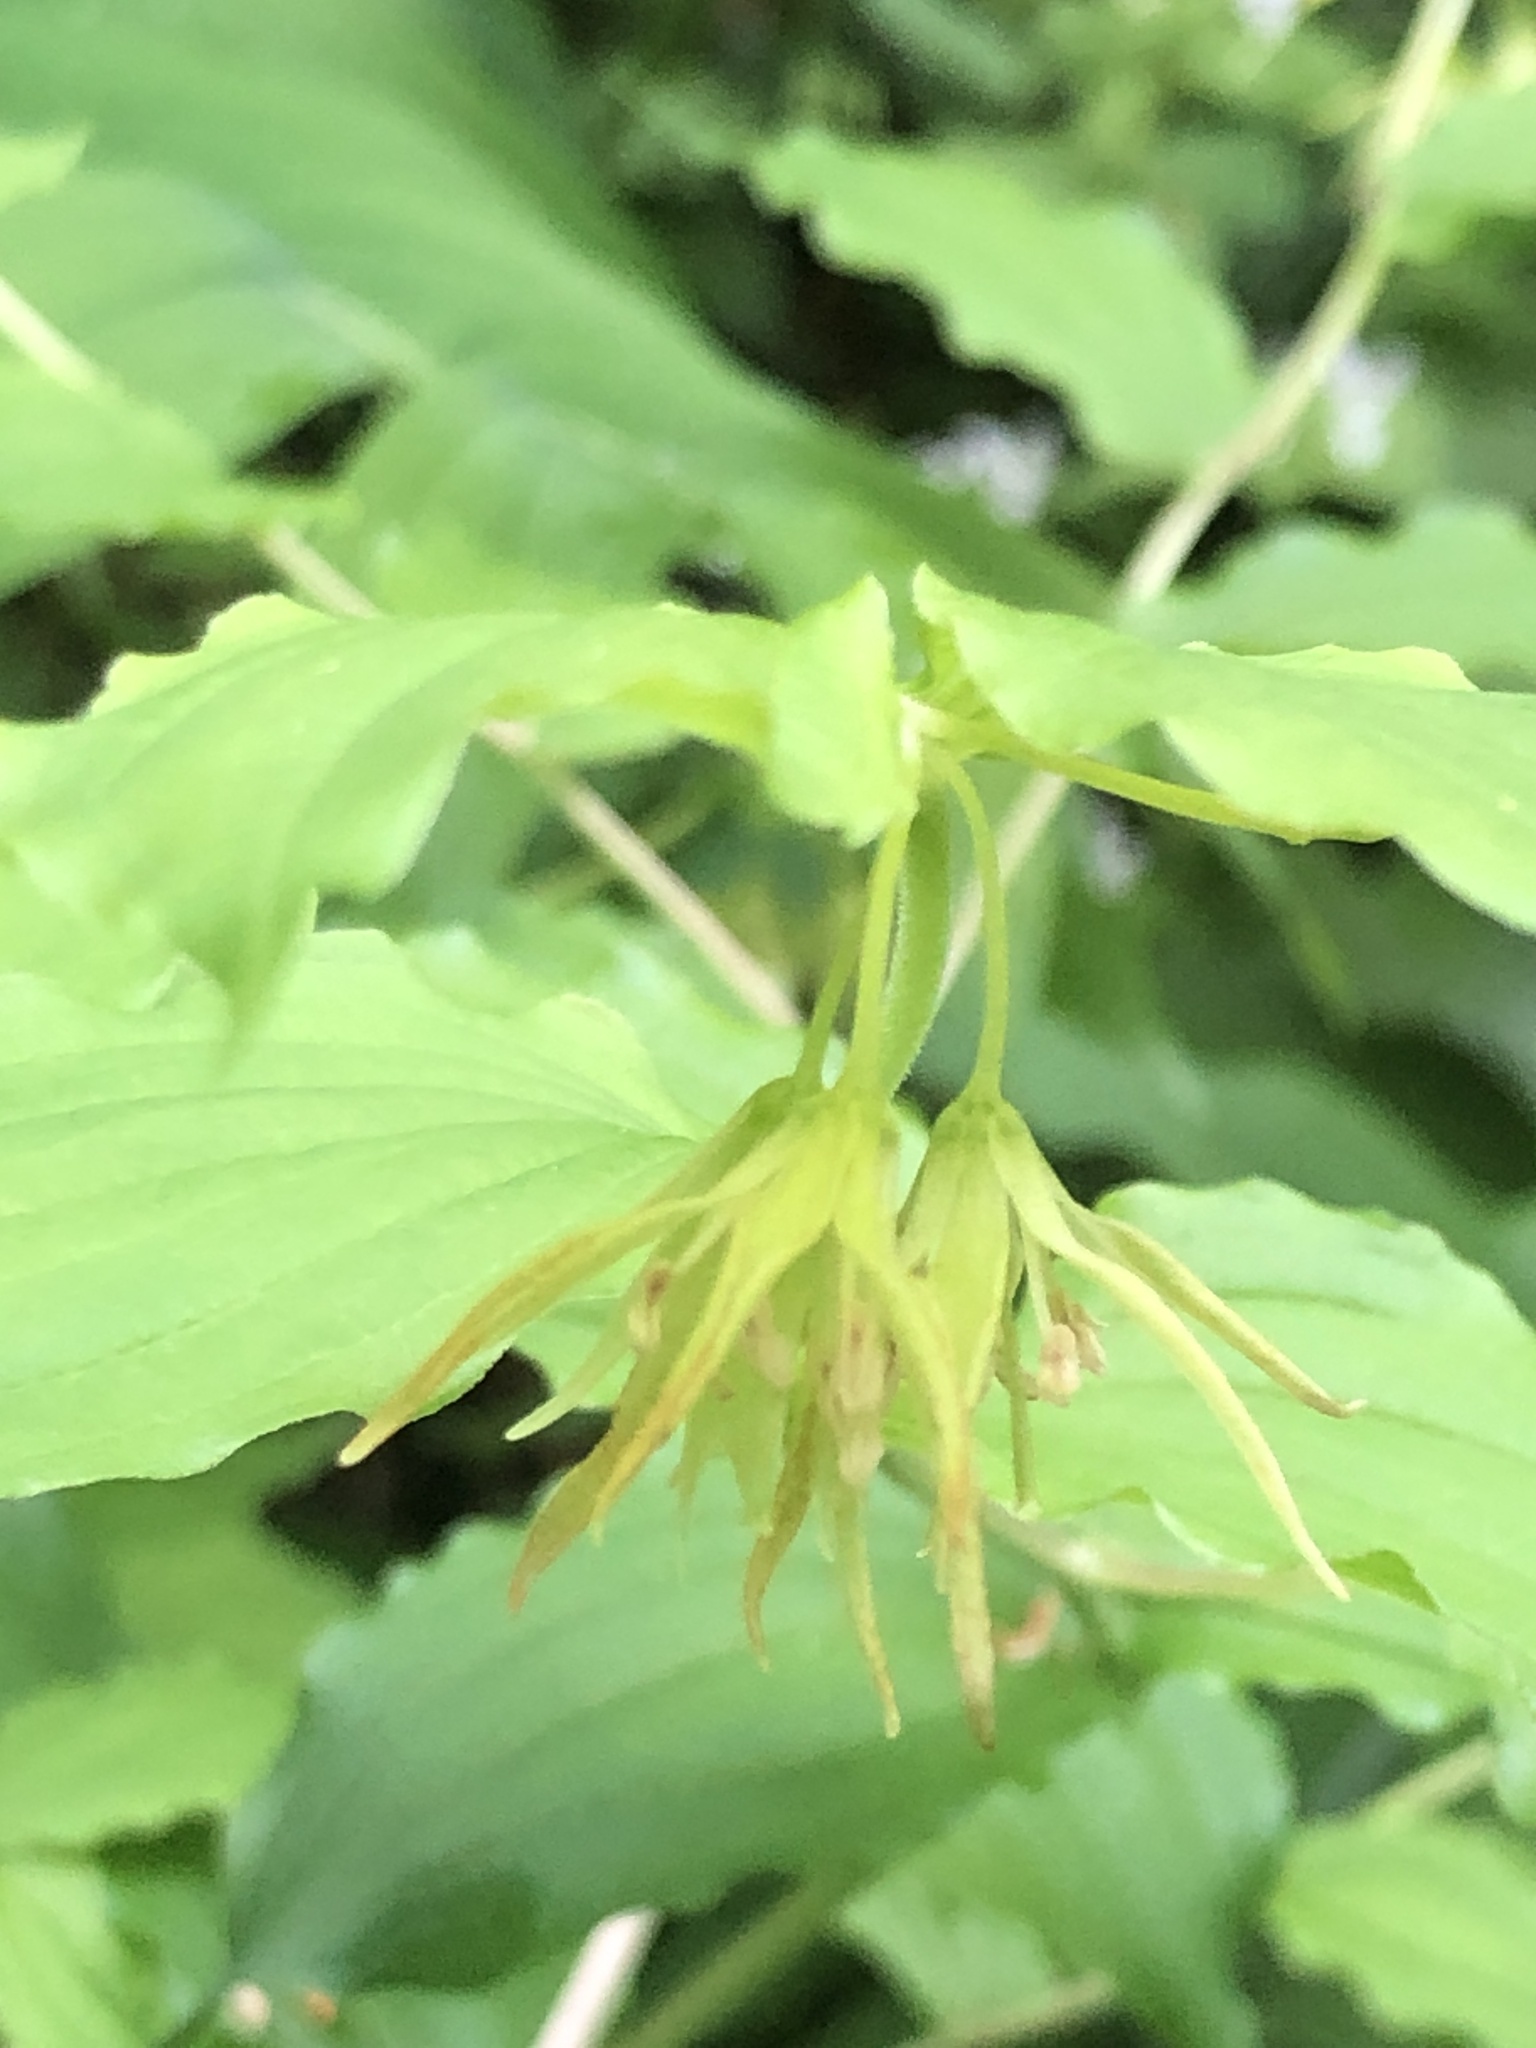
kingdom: Plantae
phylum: Tracheophyta
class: Liliopsida
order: Liliales
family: Liliaceae
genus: Prosartes
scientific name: Prosartes lanuginosa
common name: Hairy mandarin
